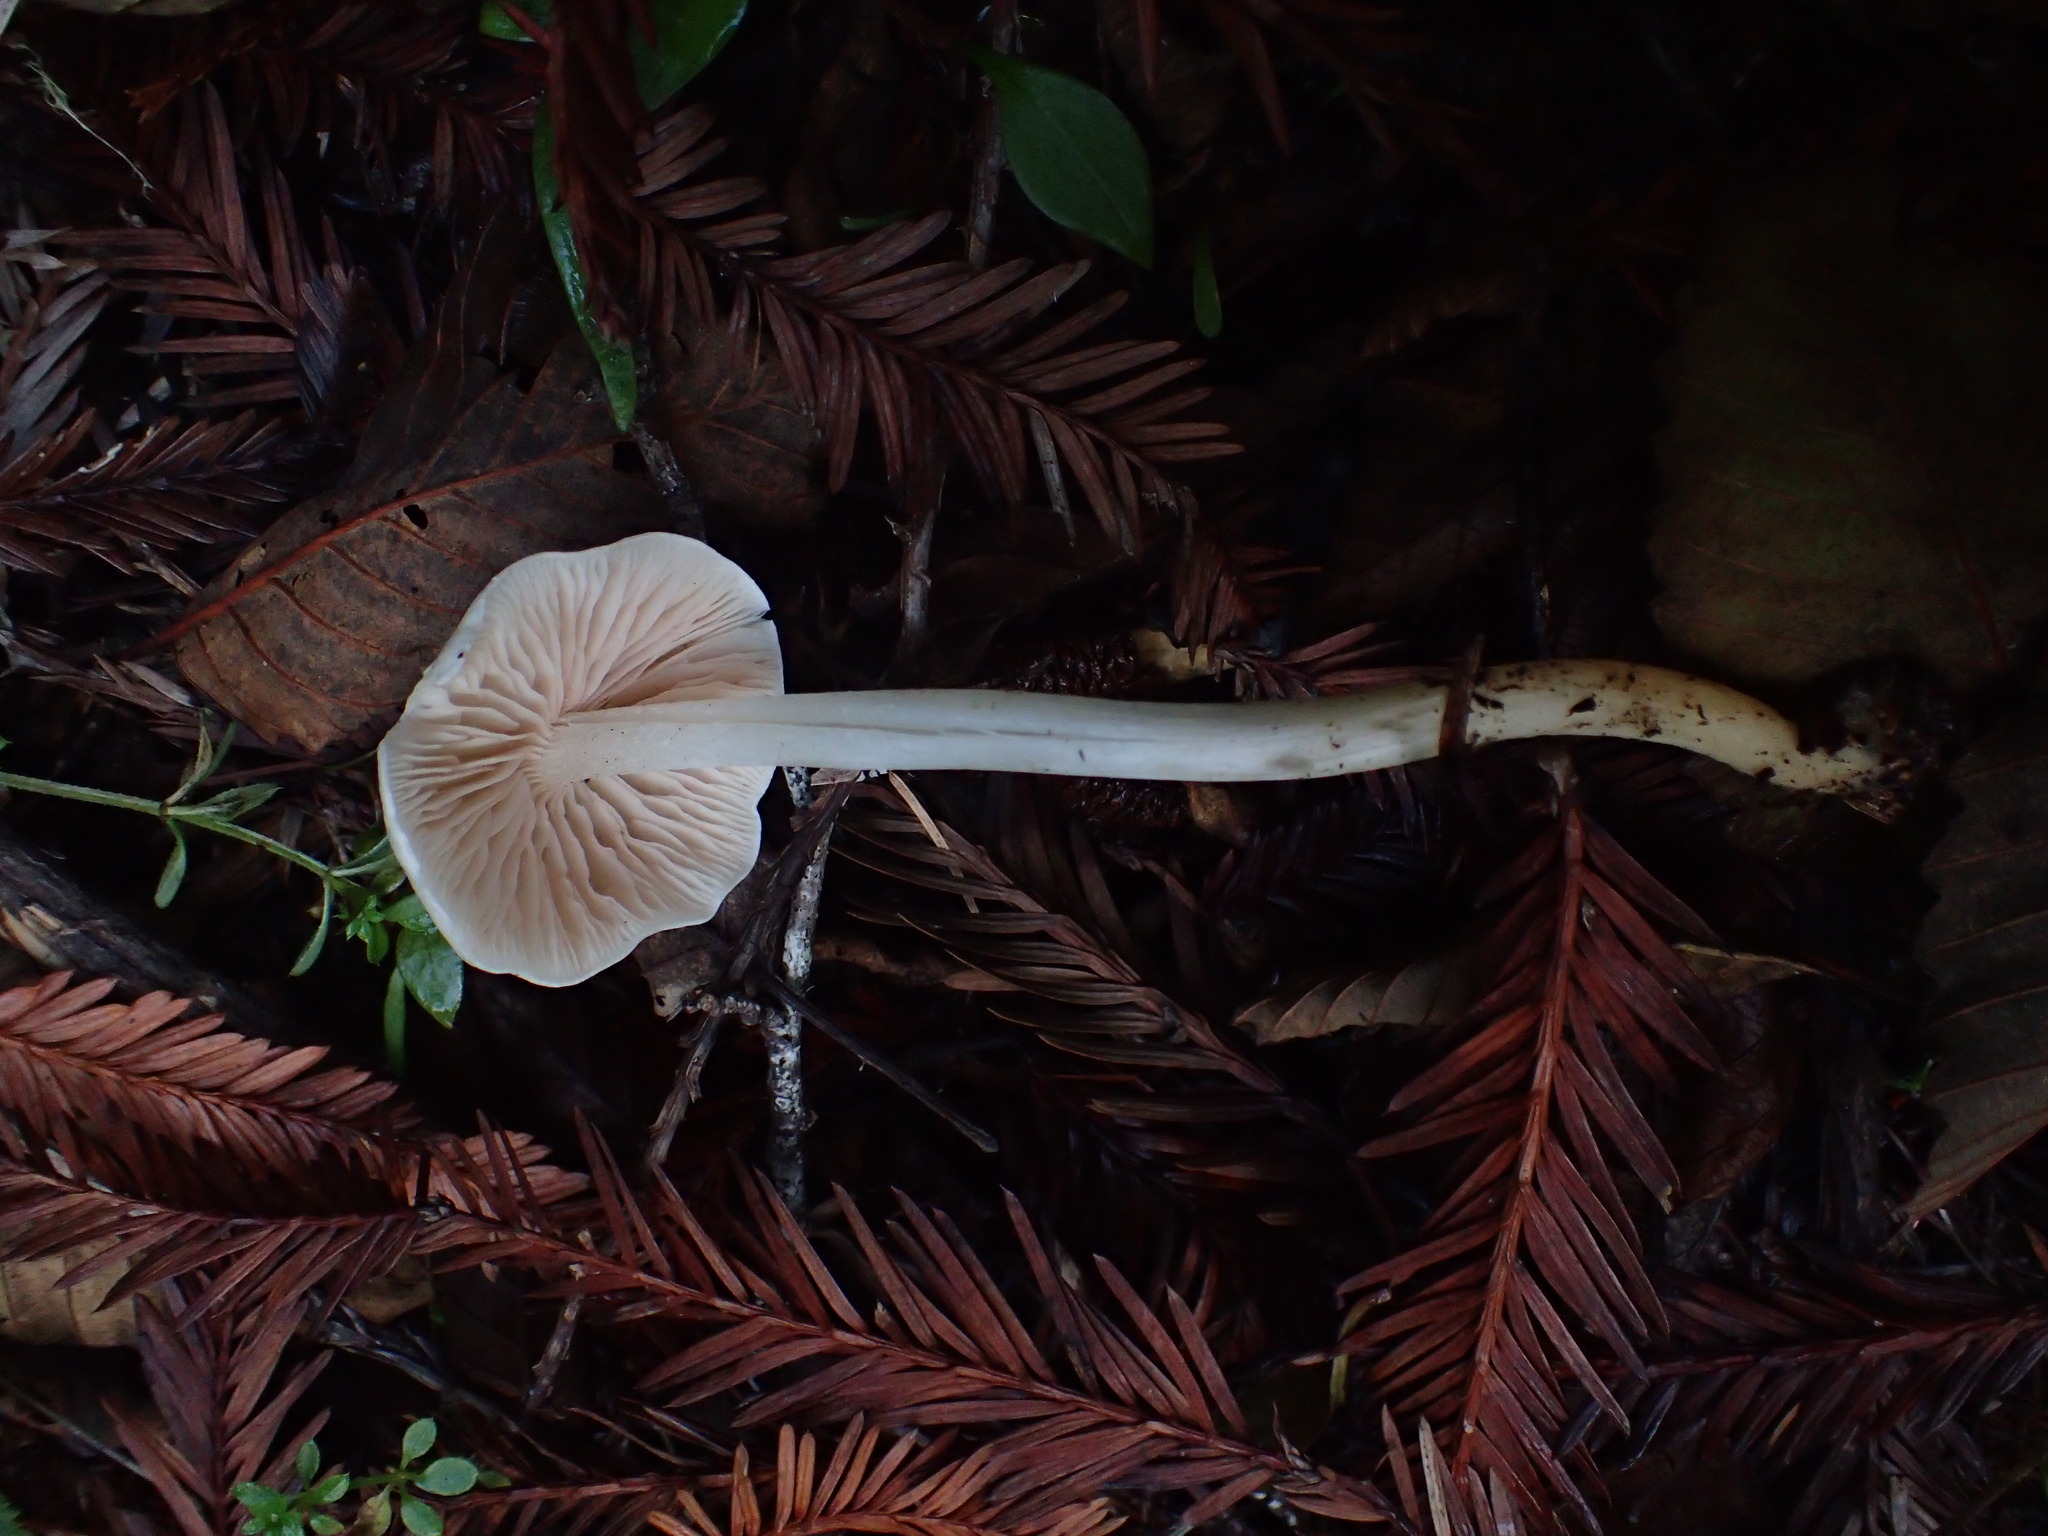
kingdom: Fungi
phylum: Basidiomycota
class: Agaricomycetes
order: Agaricales
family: Entolomataceae
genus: Entoloma
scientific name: Entoloma adnatifolium
